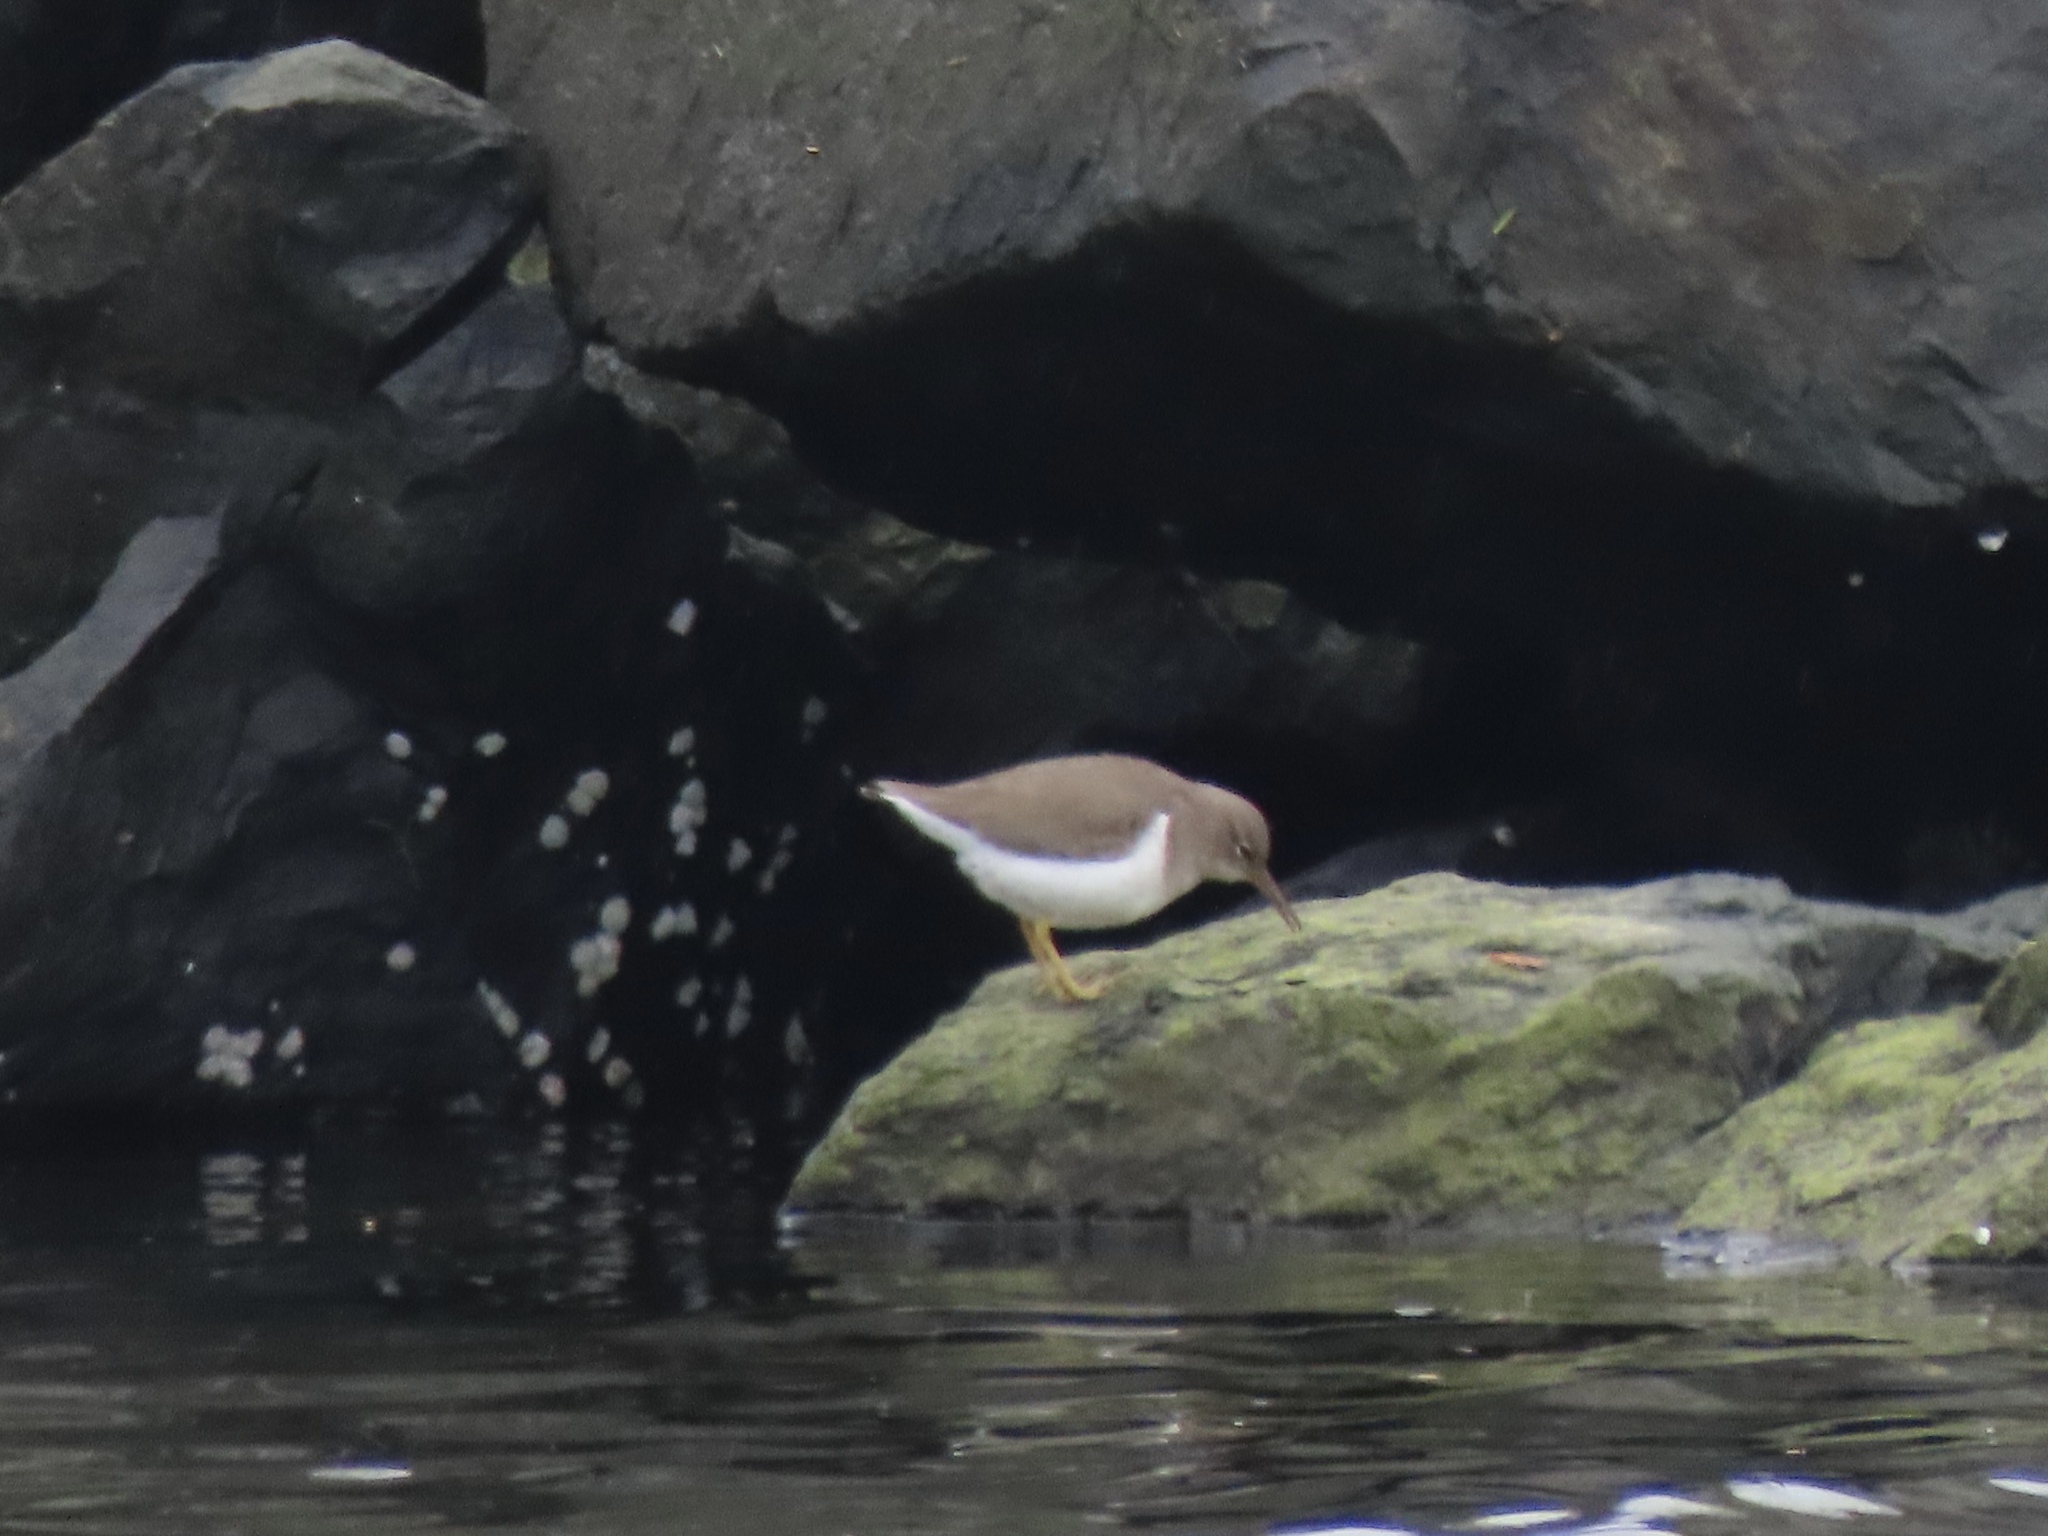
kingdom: Animalia
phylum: Chordata
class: Aves
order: Charadriiformes
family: Scolopacidae
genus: Actitis
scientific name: Actitis macularius
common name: Spotted sandpiper
